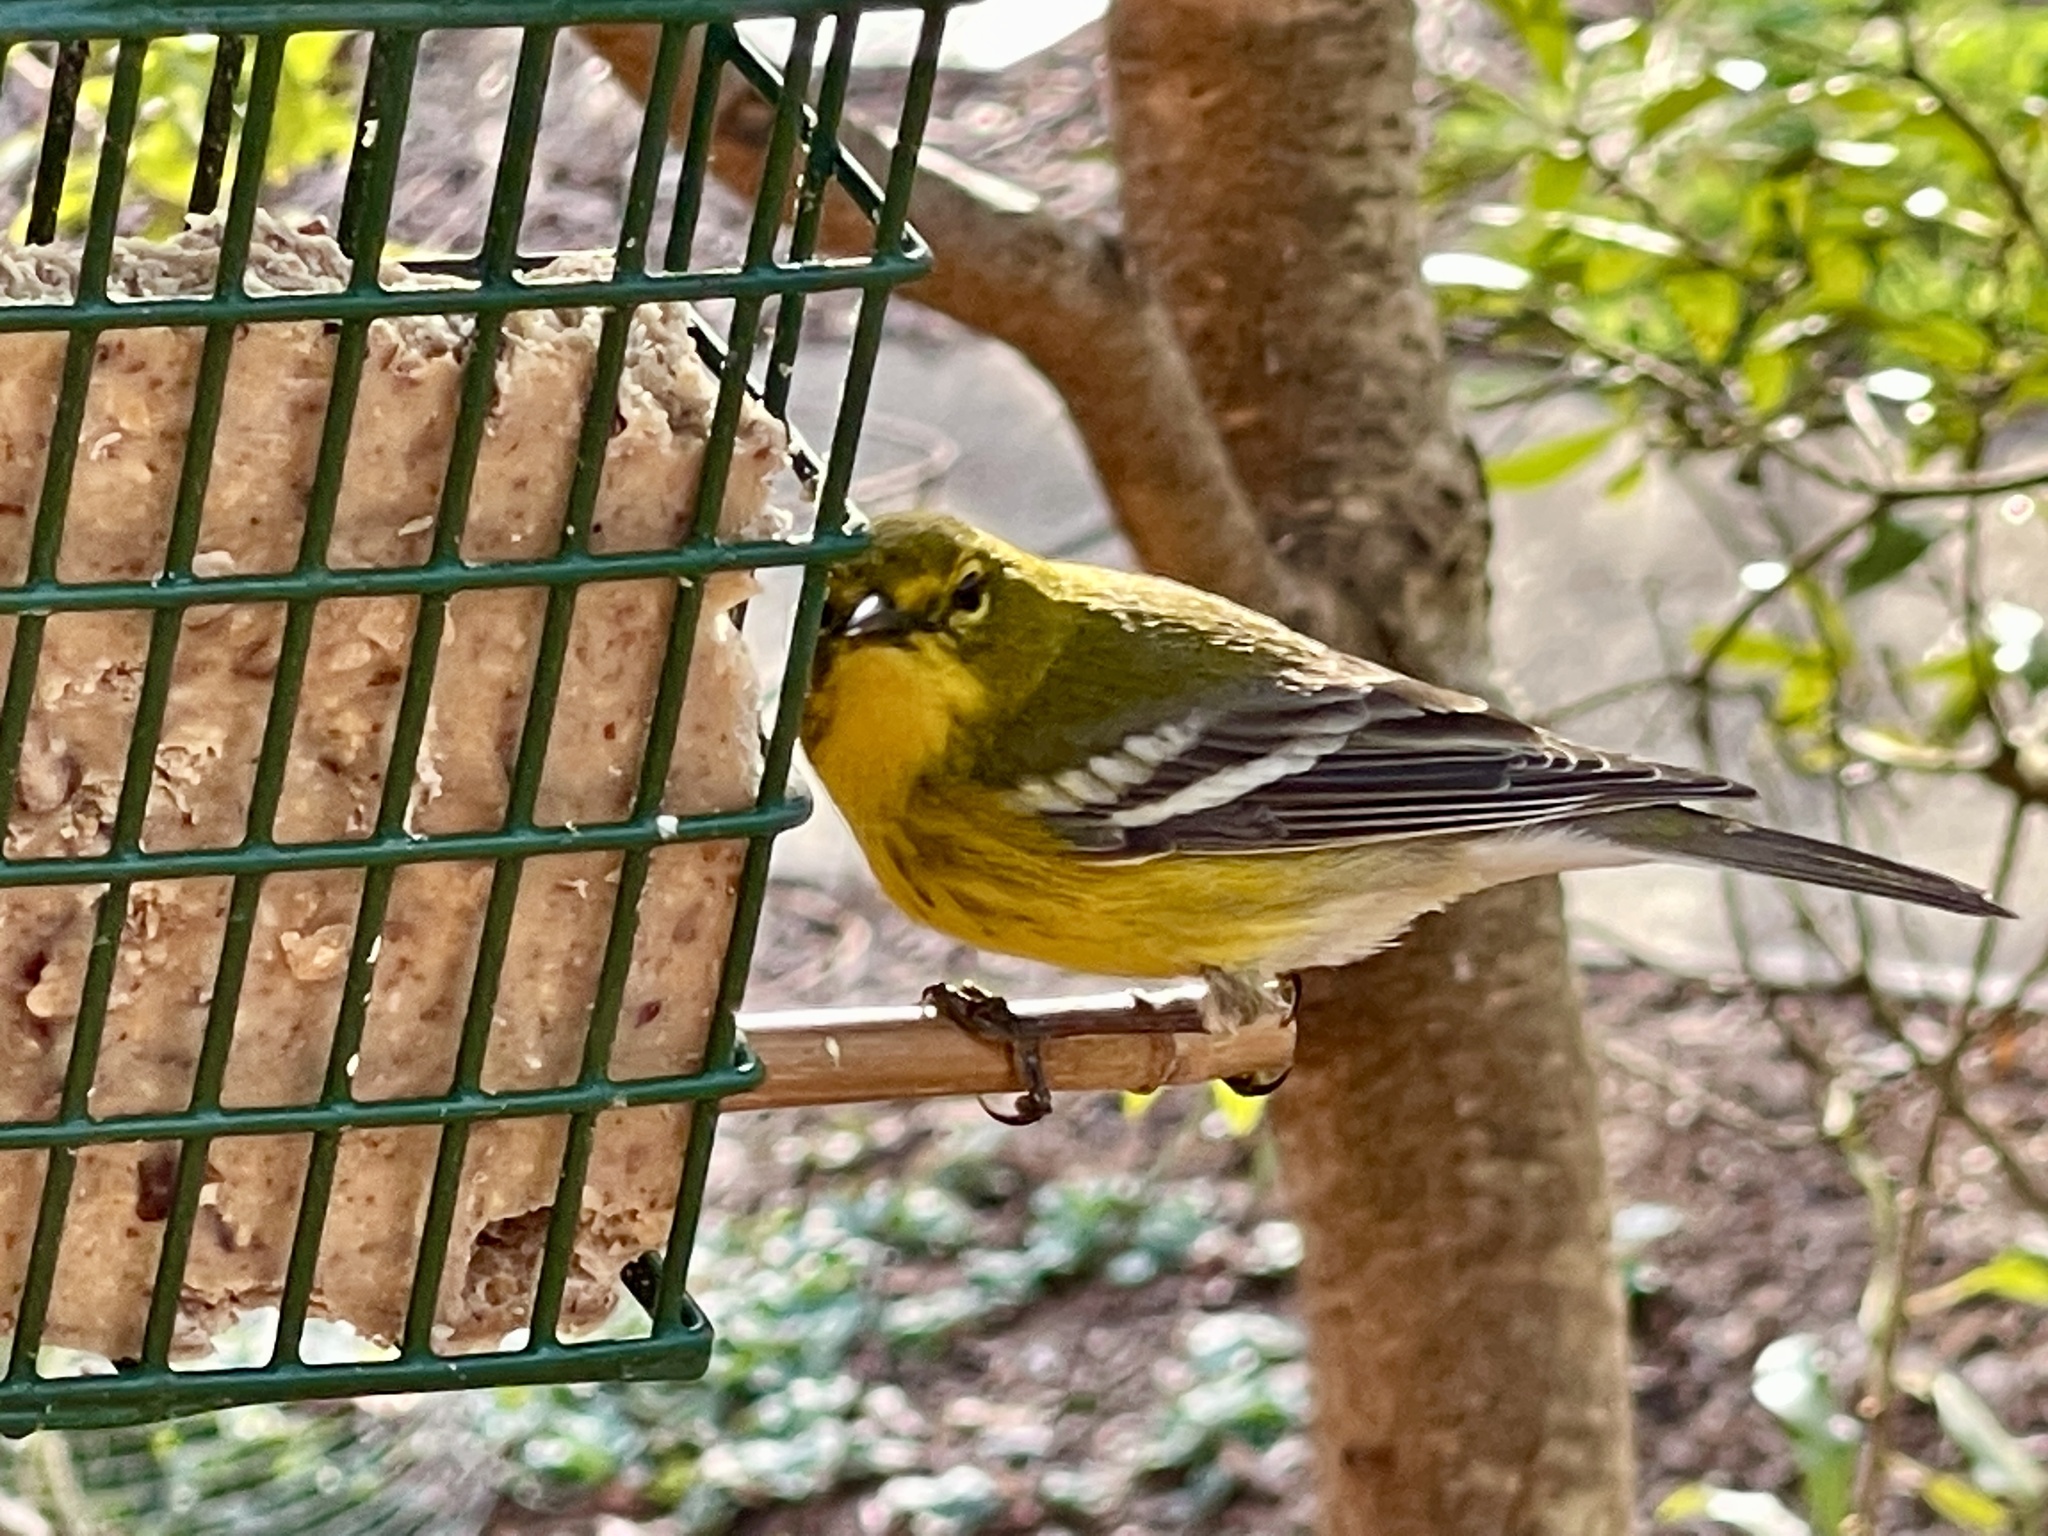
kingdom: Animalia
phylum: Chordata
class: Aves
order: Passeriformes
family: Parulidae
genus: Setophaga
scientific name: Setophaga pinus
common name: Pine warbler
